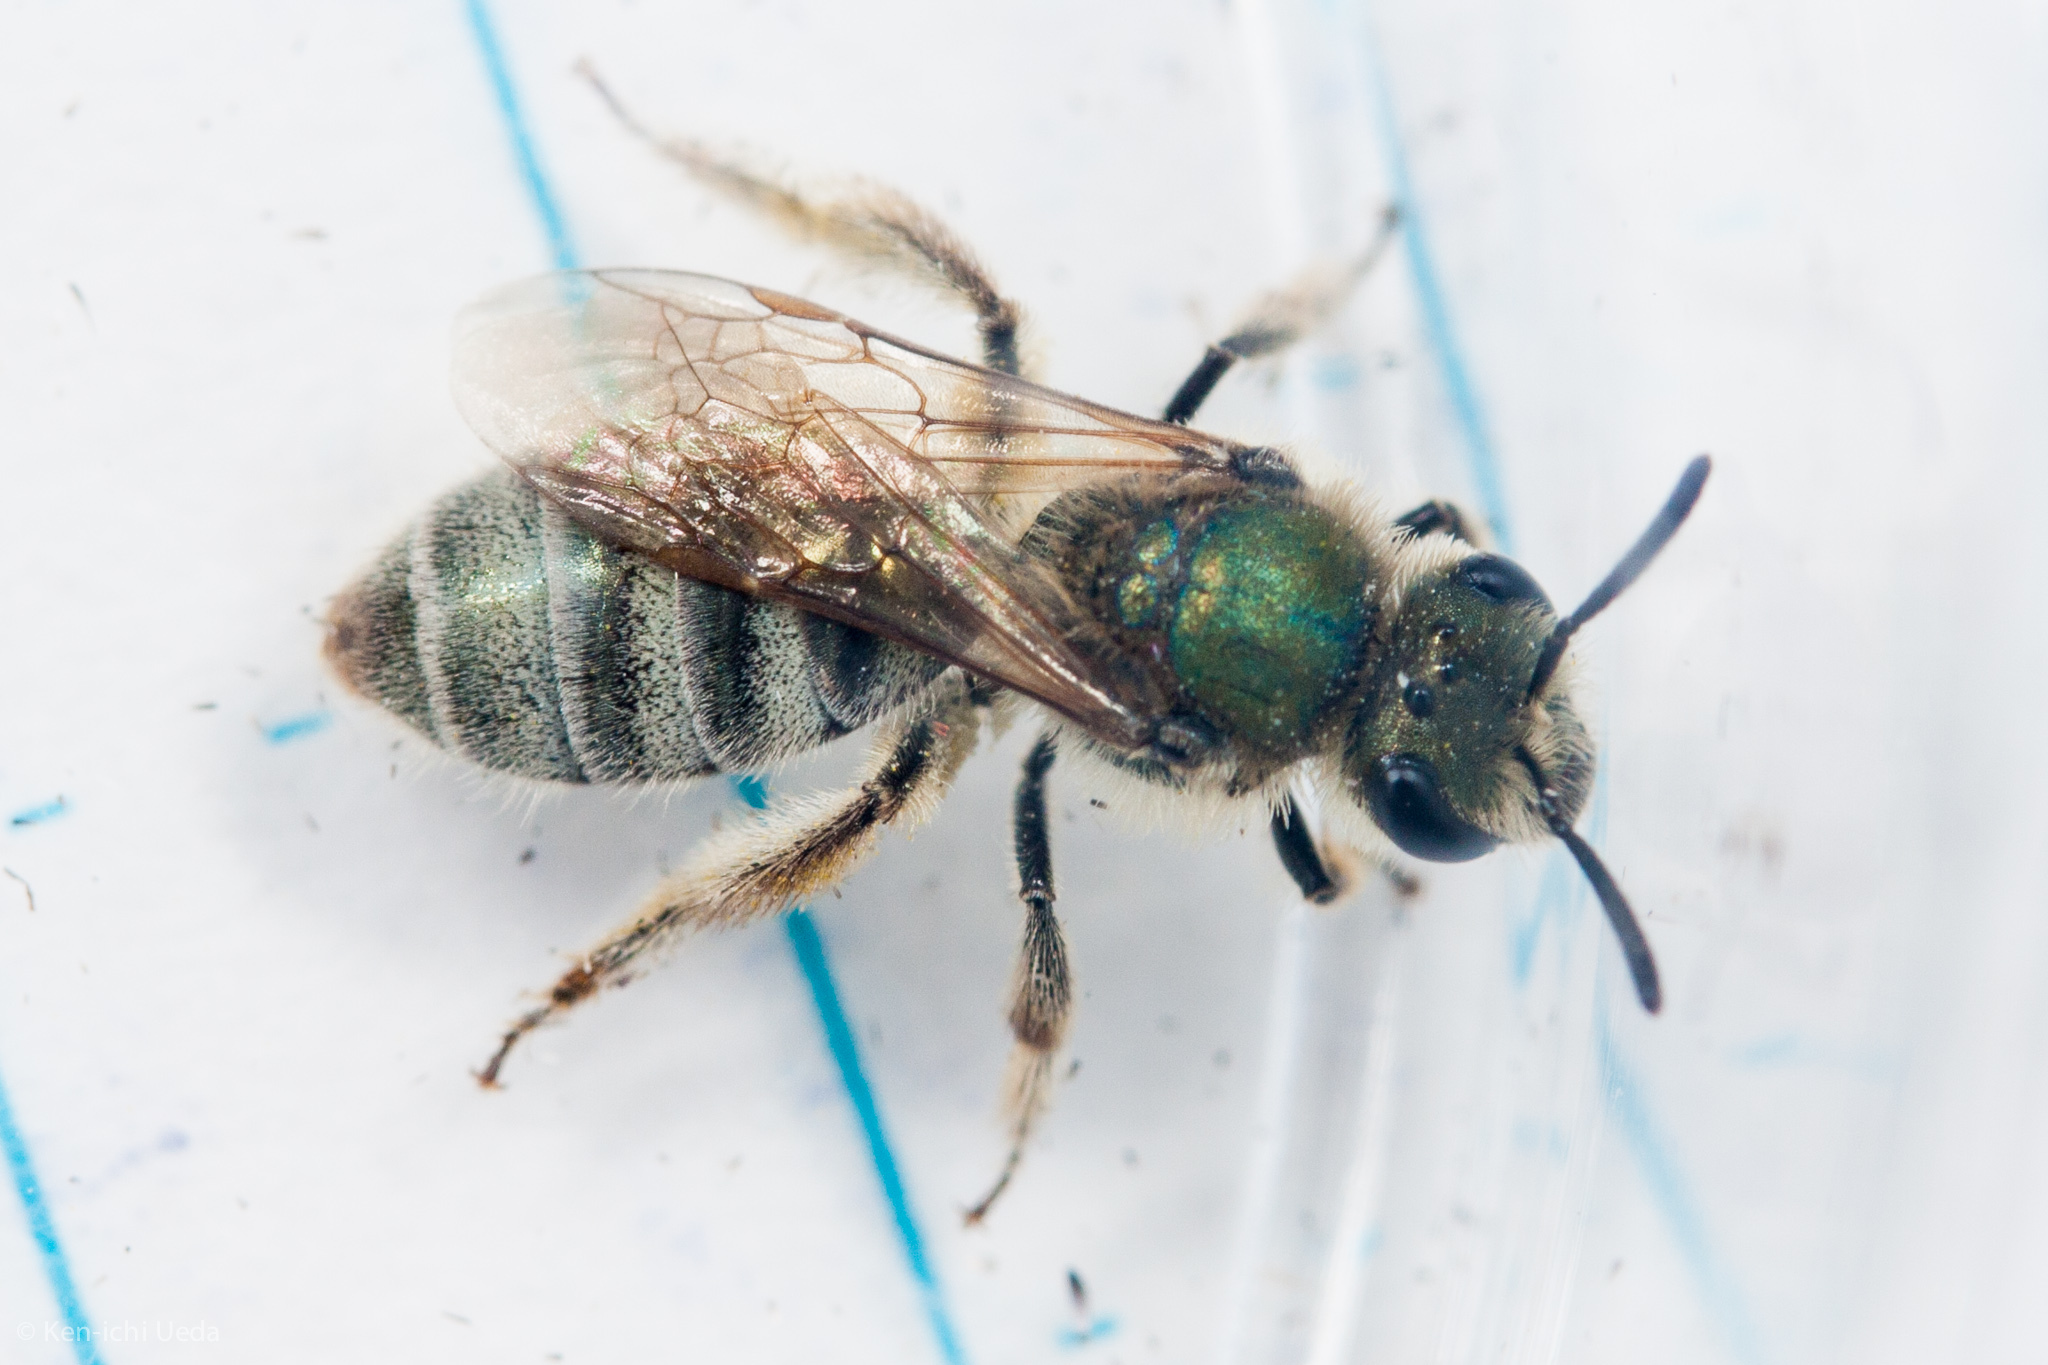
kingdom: Animalia
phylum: Arthropoda
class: Insecta
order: Hymenoptera
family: Halictidae
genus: Lasioglossum
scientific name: Lasioglossum pavonotum
